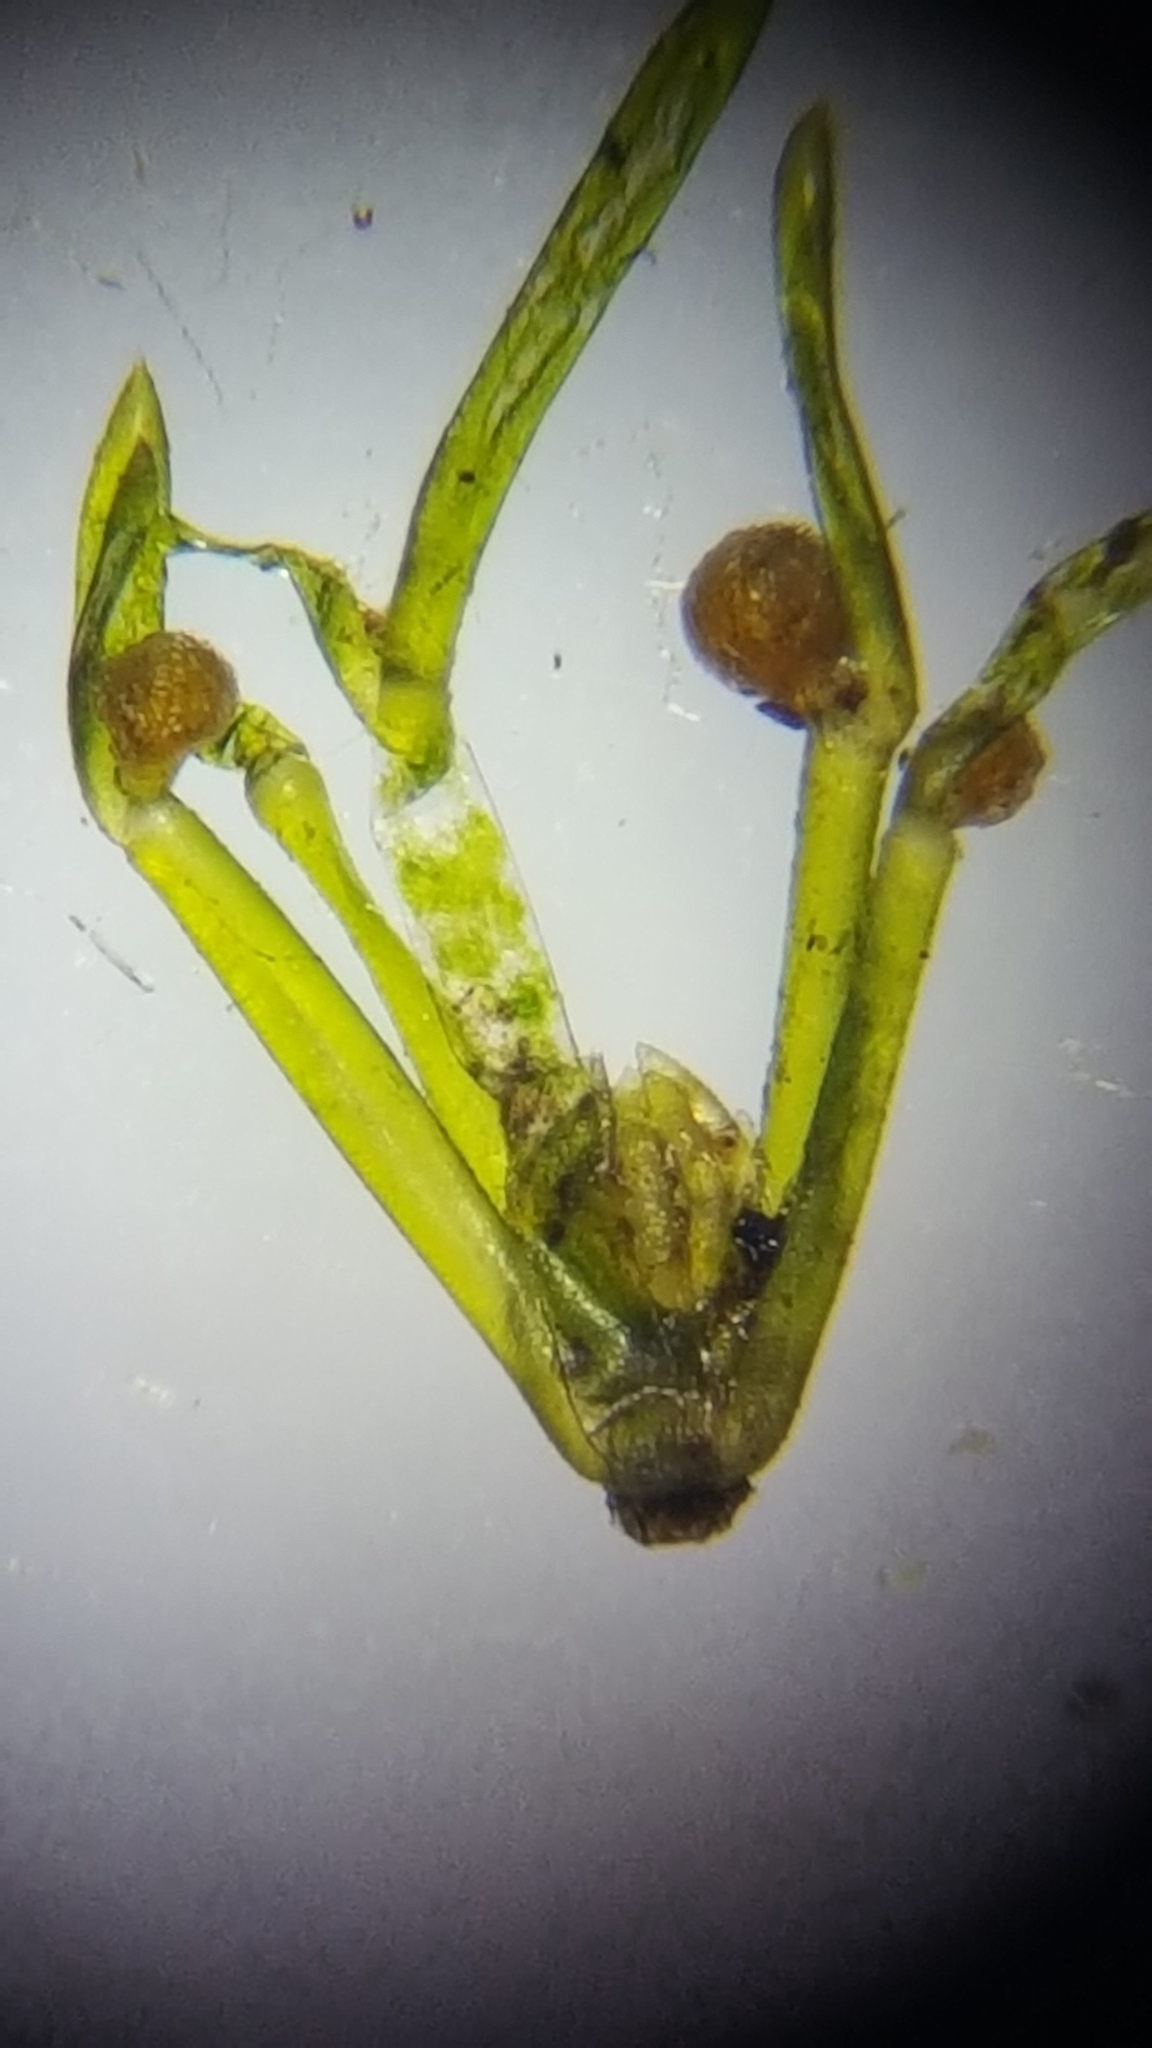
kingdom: Plantae
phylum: Charophyta
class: Charophyceae
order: Charales
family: Characeae
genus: Nitella
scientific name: Nitella opaca
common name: Dark stonewort
